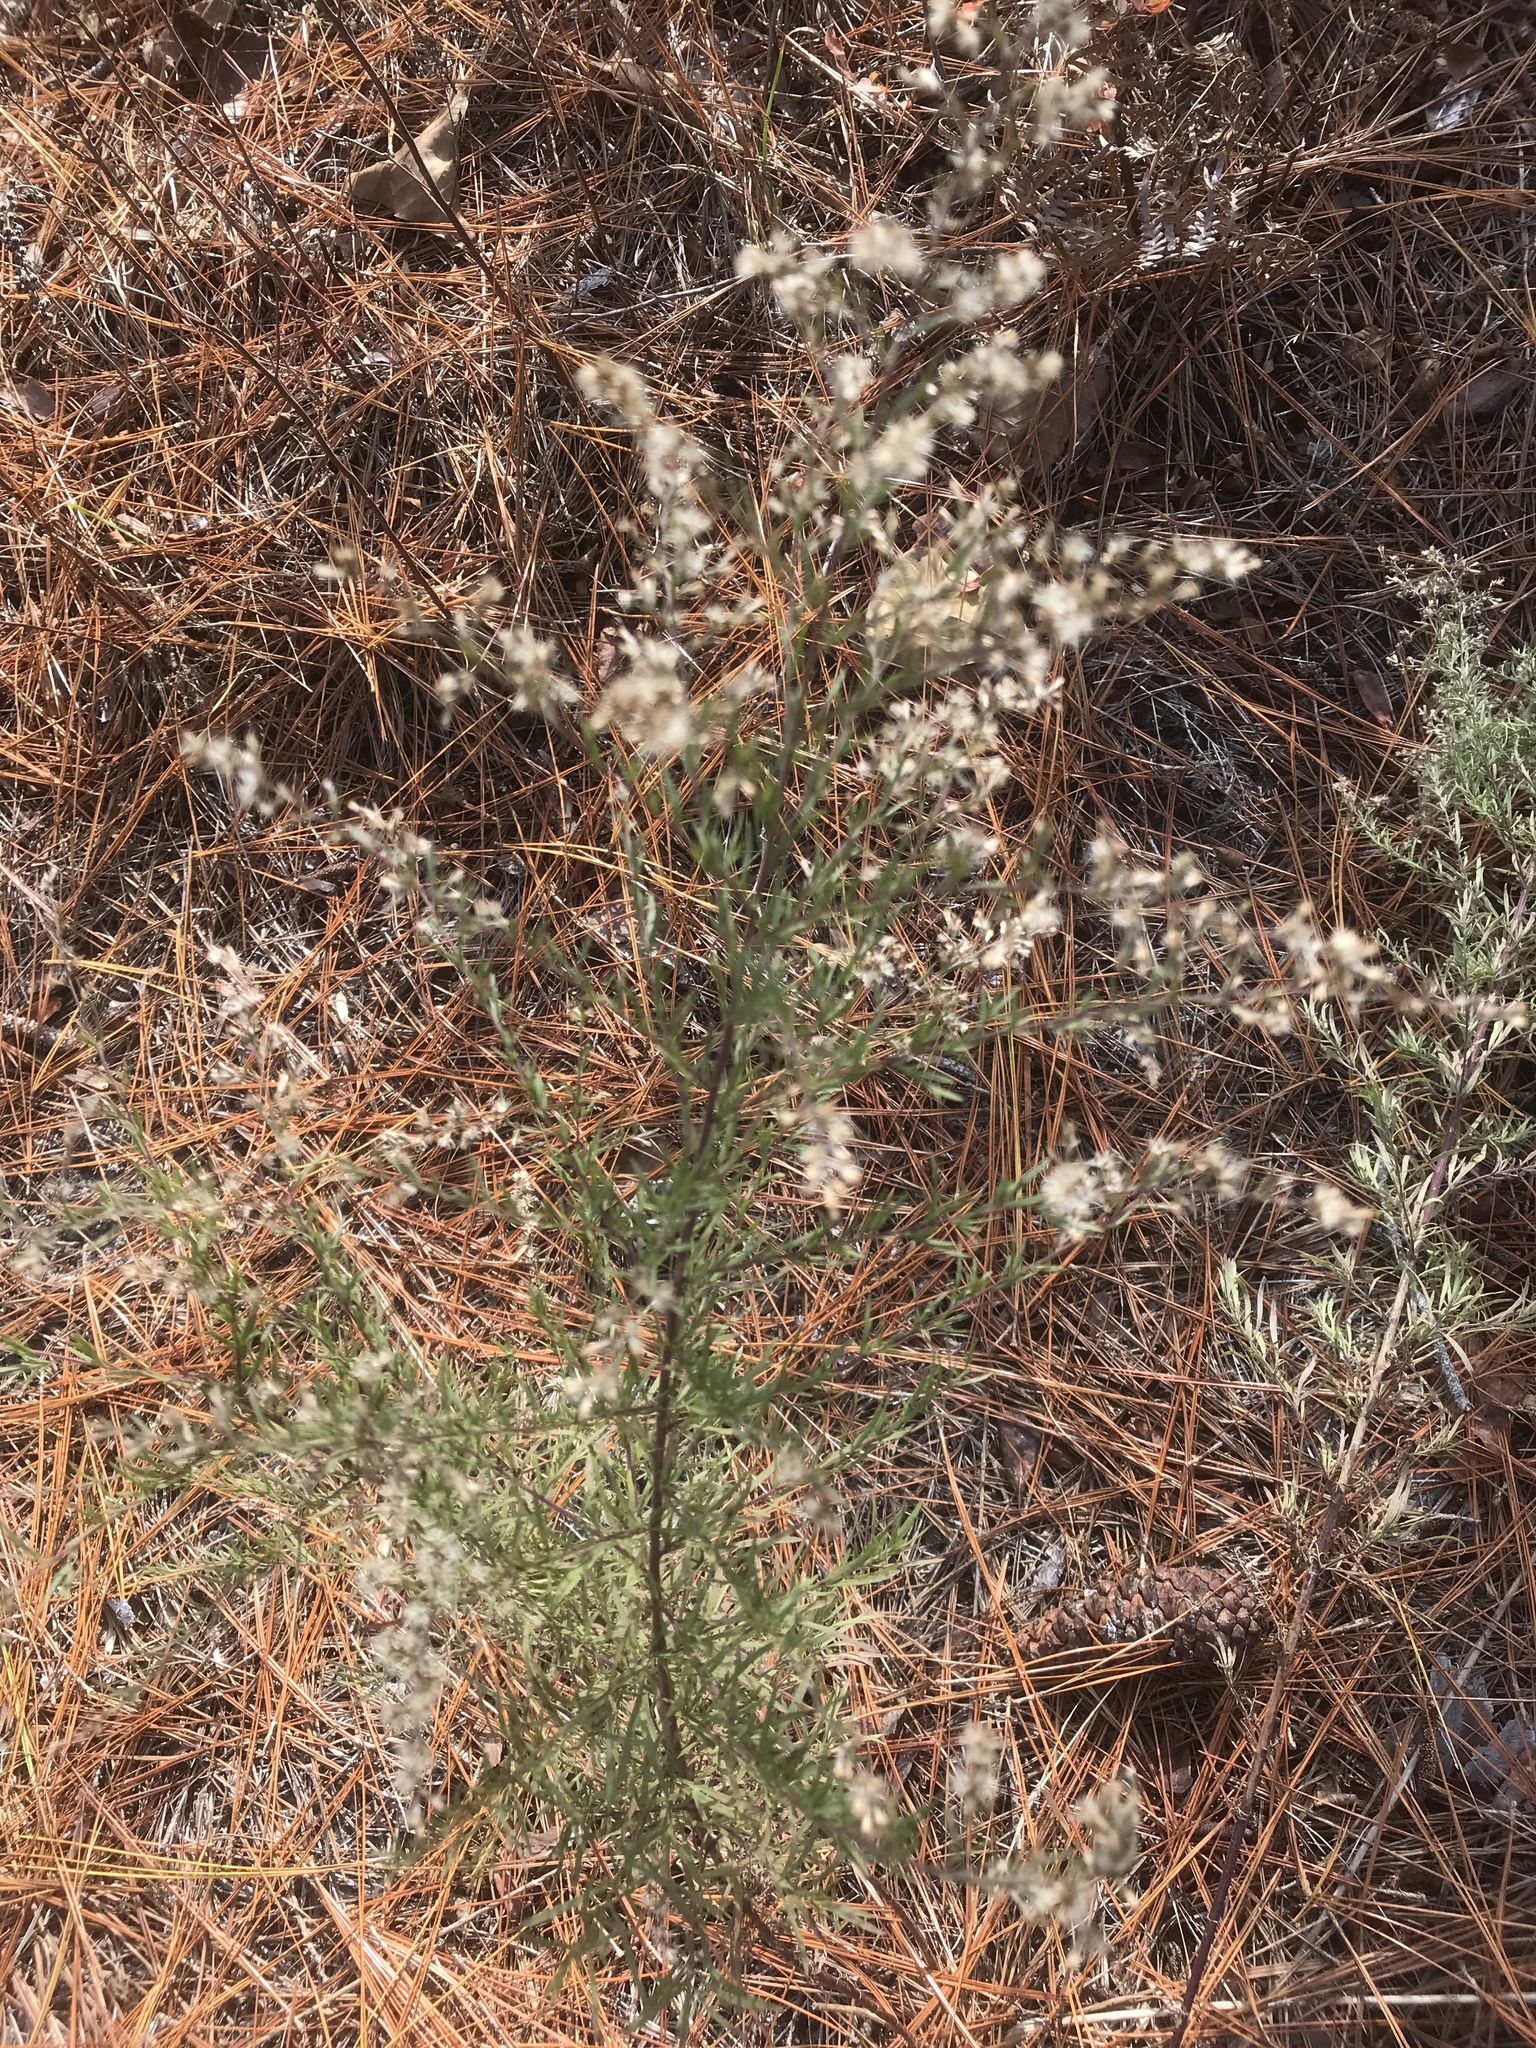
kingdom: Plantae
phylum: Tracheophyta
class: Magnoliopsida
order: Asterales
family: Asteraceae
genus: Eupatorium
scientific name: Eupatorium compositifolium
